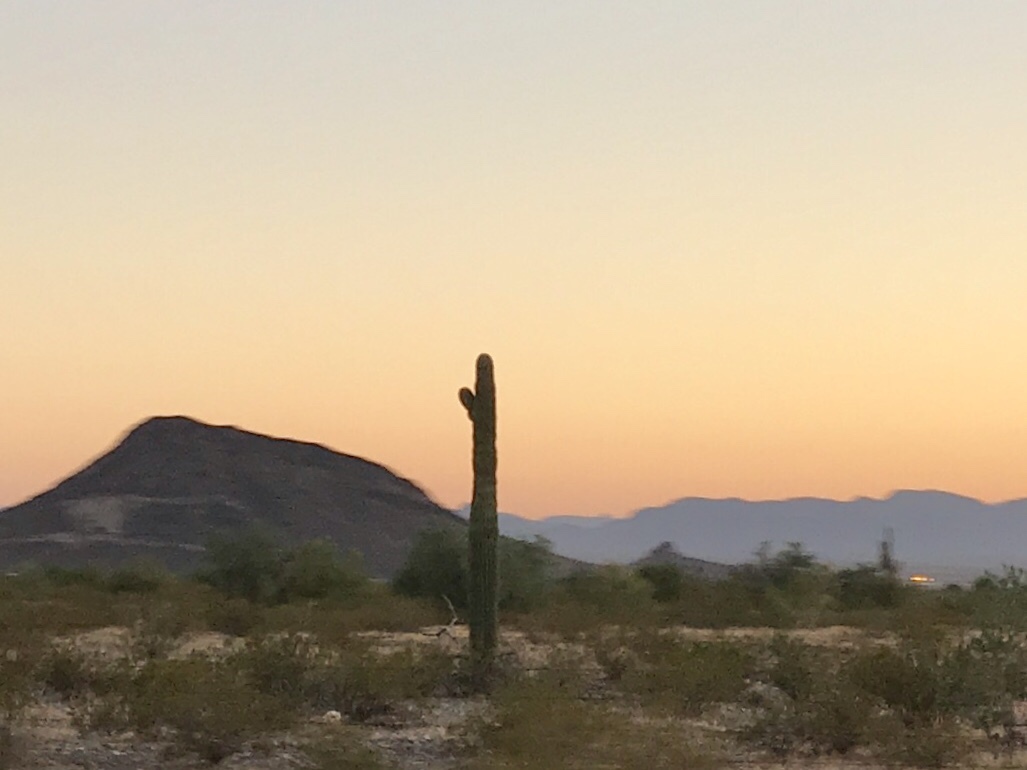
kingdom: Plantae
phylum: Tracheophyta
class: Magnoliopsida
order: Caryophyllales
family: Cactaceae
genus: Carnegiea
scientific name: Carnegiea gigantea
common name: Saguaro
